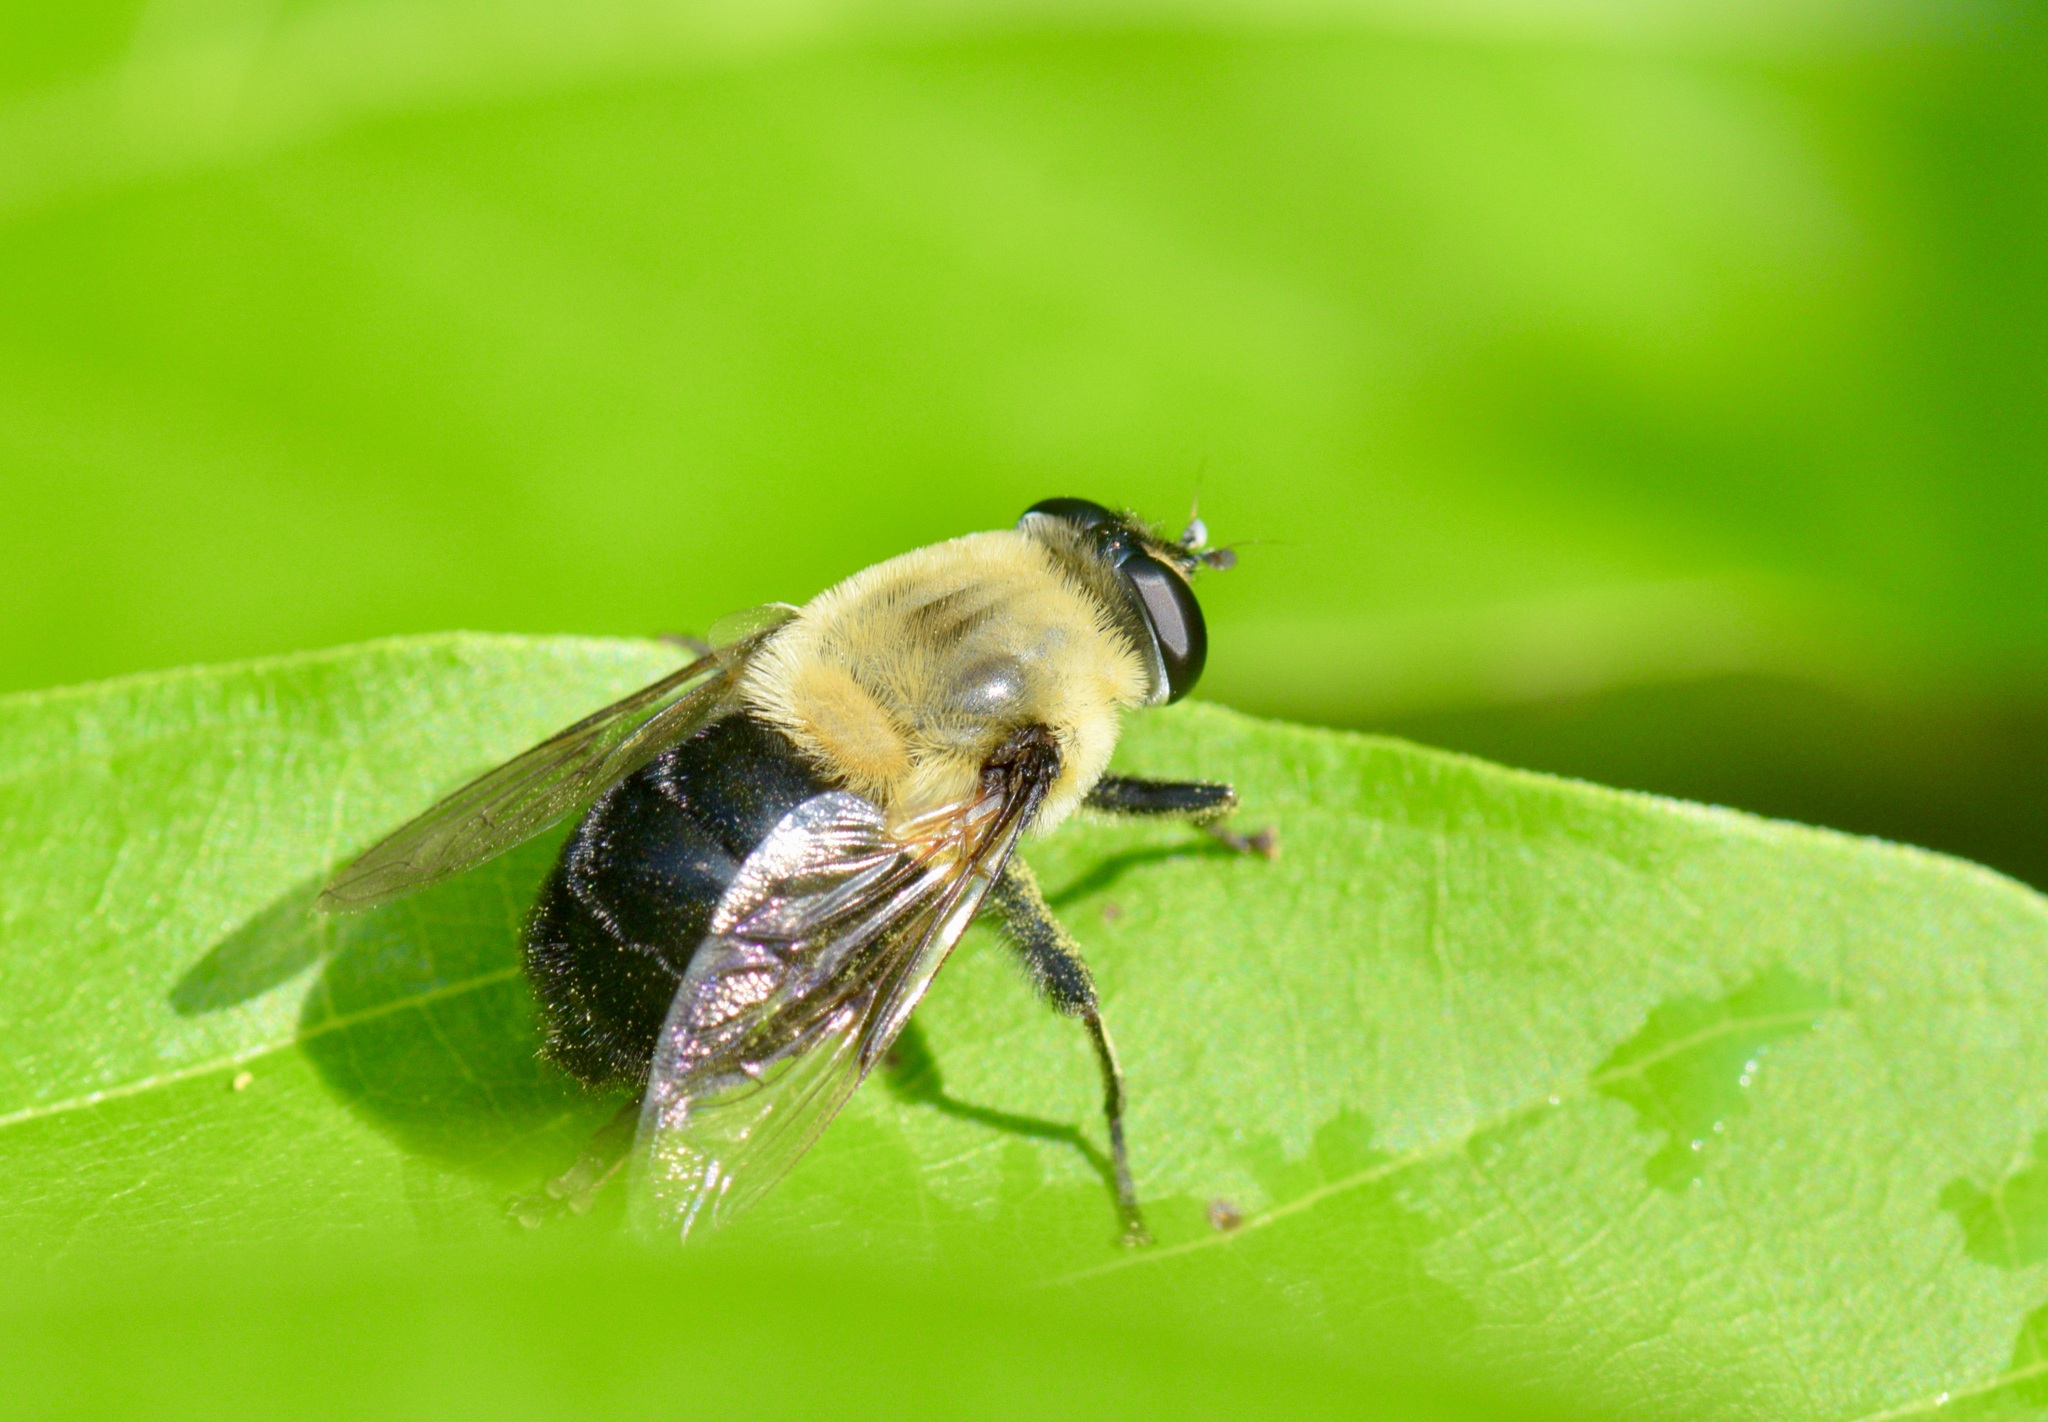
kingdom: Animalia
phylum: Arthropoda
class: Insecta
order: Diptera
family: Syrphidae
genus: Imatisma
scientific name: Imatisma bautias
